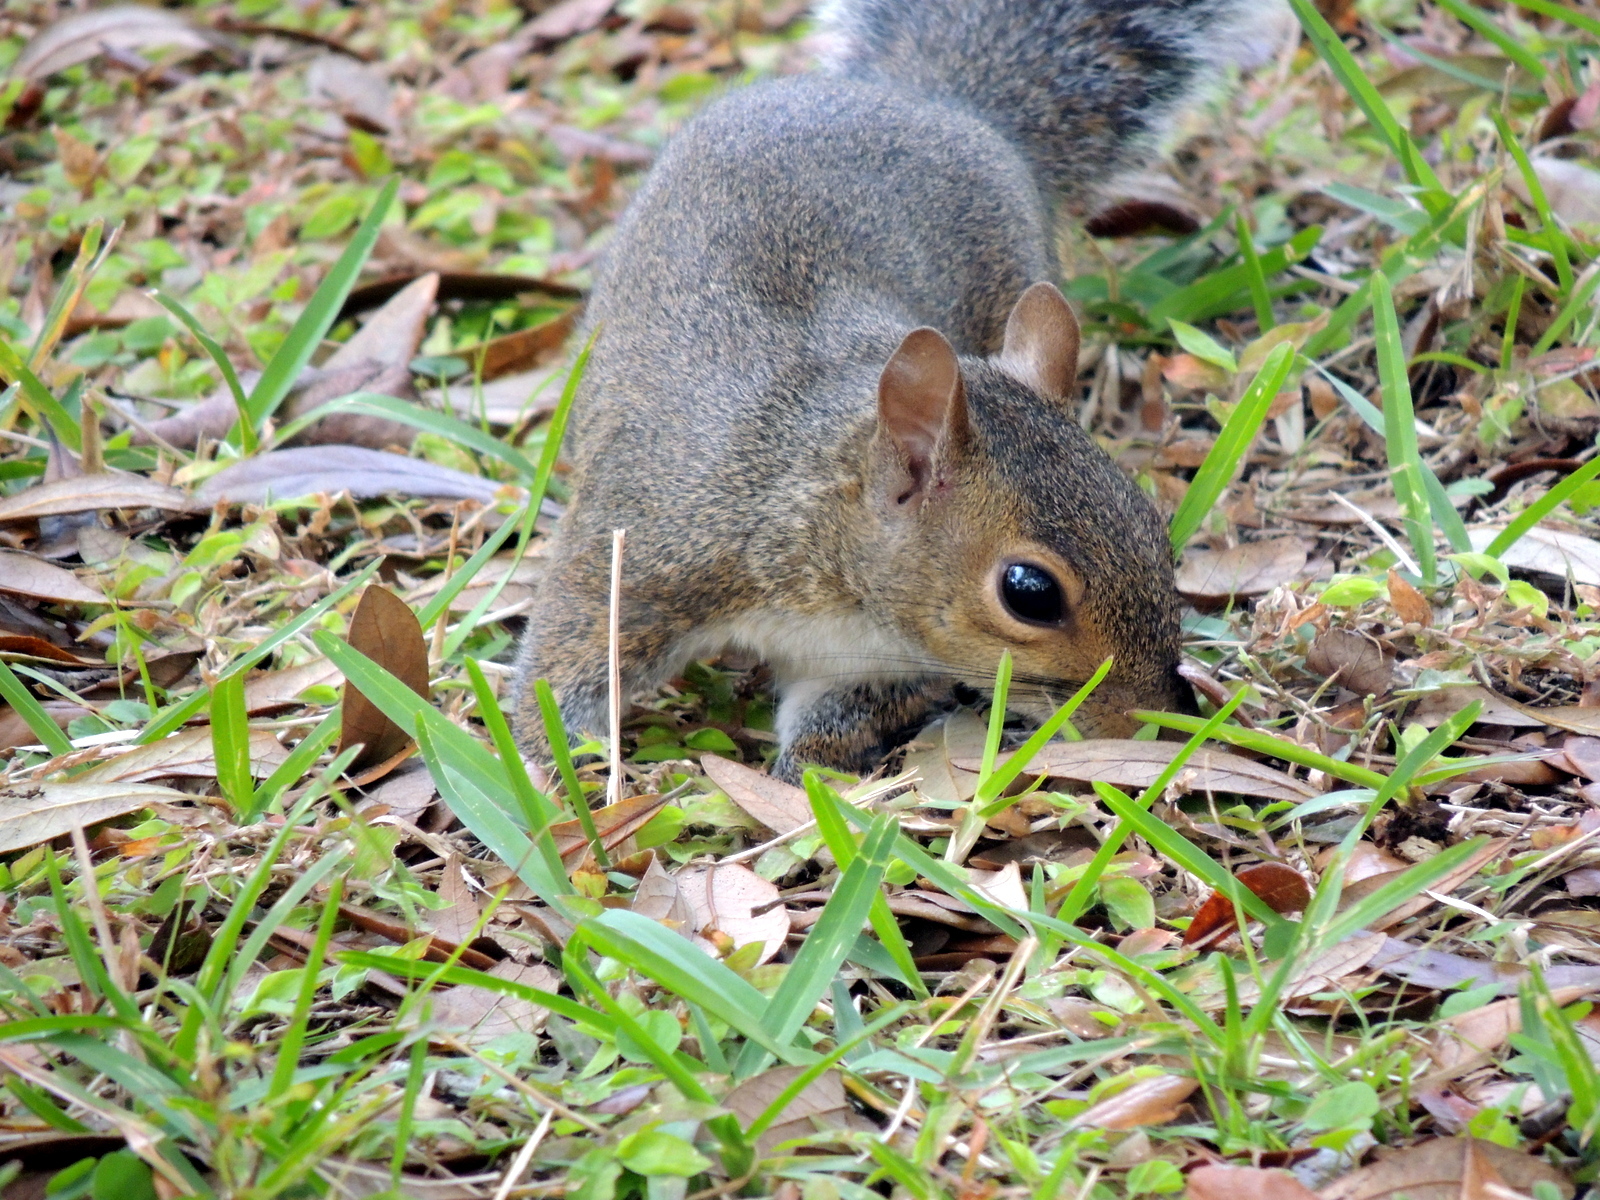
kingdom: Animalia
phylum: Chordata
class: Mammalia
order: Rodentia
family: Sciuridae
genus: Sciurus
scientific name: Sciurus carolinensis
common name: Eastern gray squirrel
